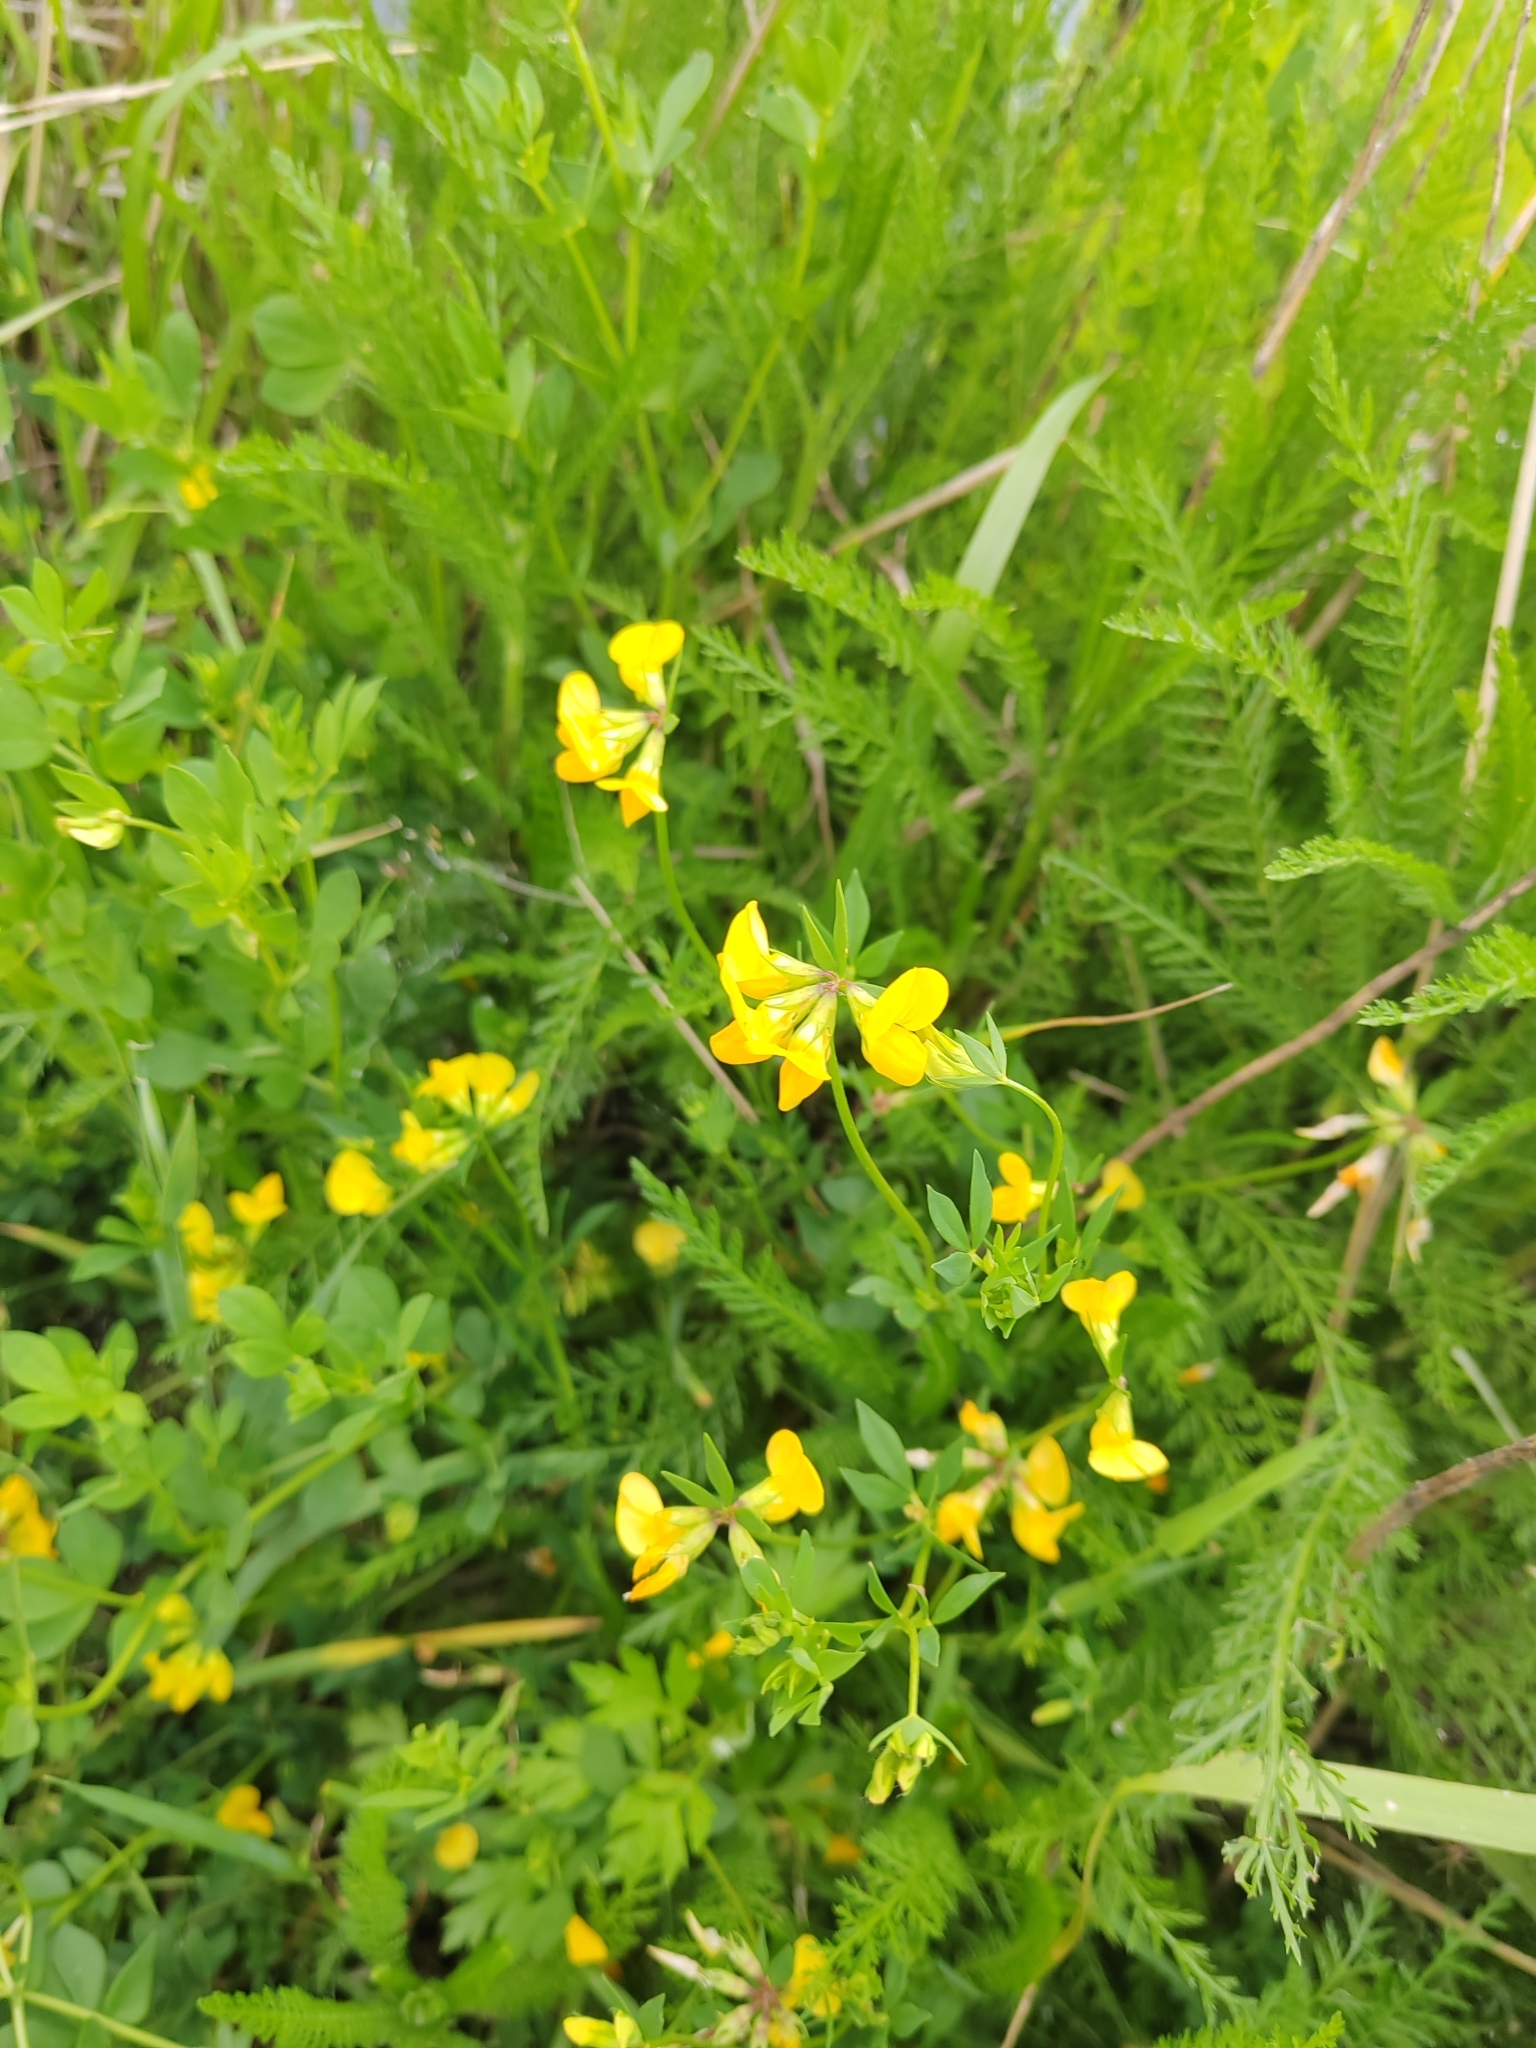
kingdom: Plantae
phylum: Tracheophyta
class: Magnoliopsida
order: Fabales
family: Fabaceae
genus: Lotus
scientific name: Lotus corniculatus
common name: Common bird's-foot-trefoil
